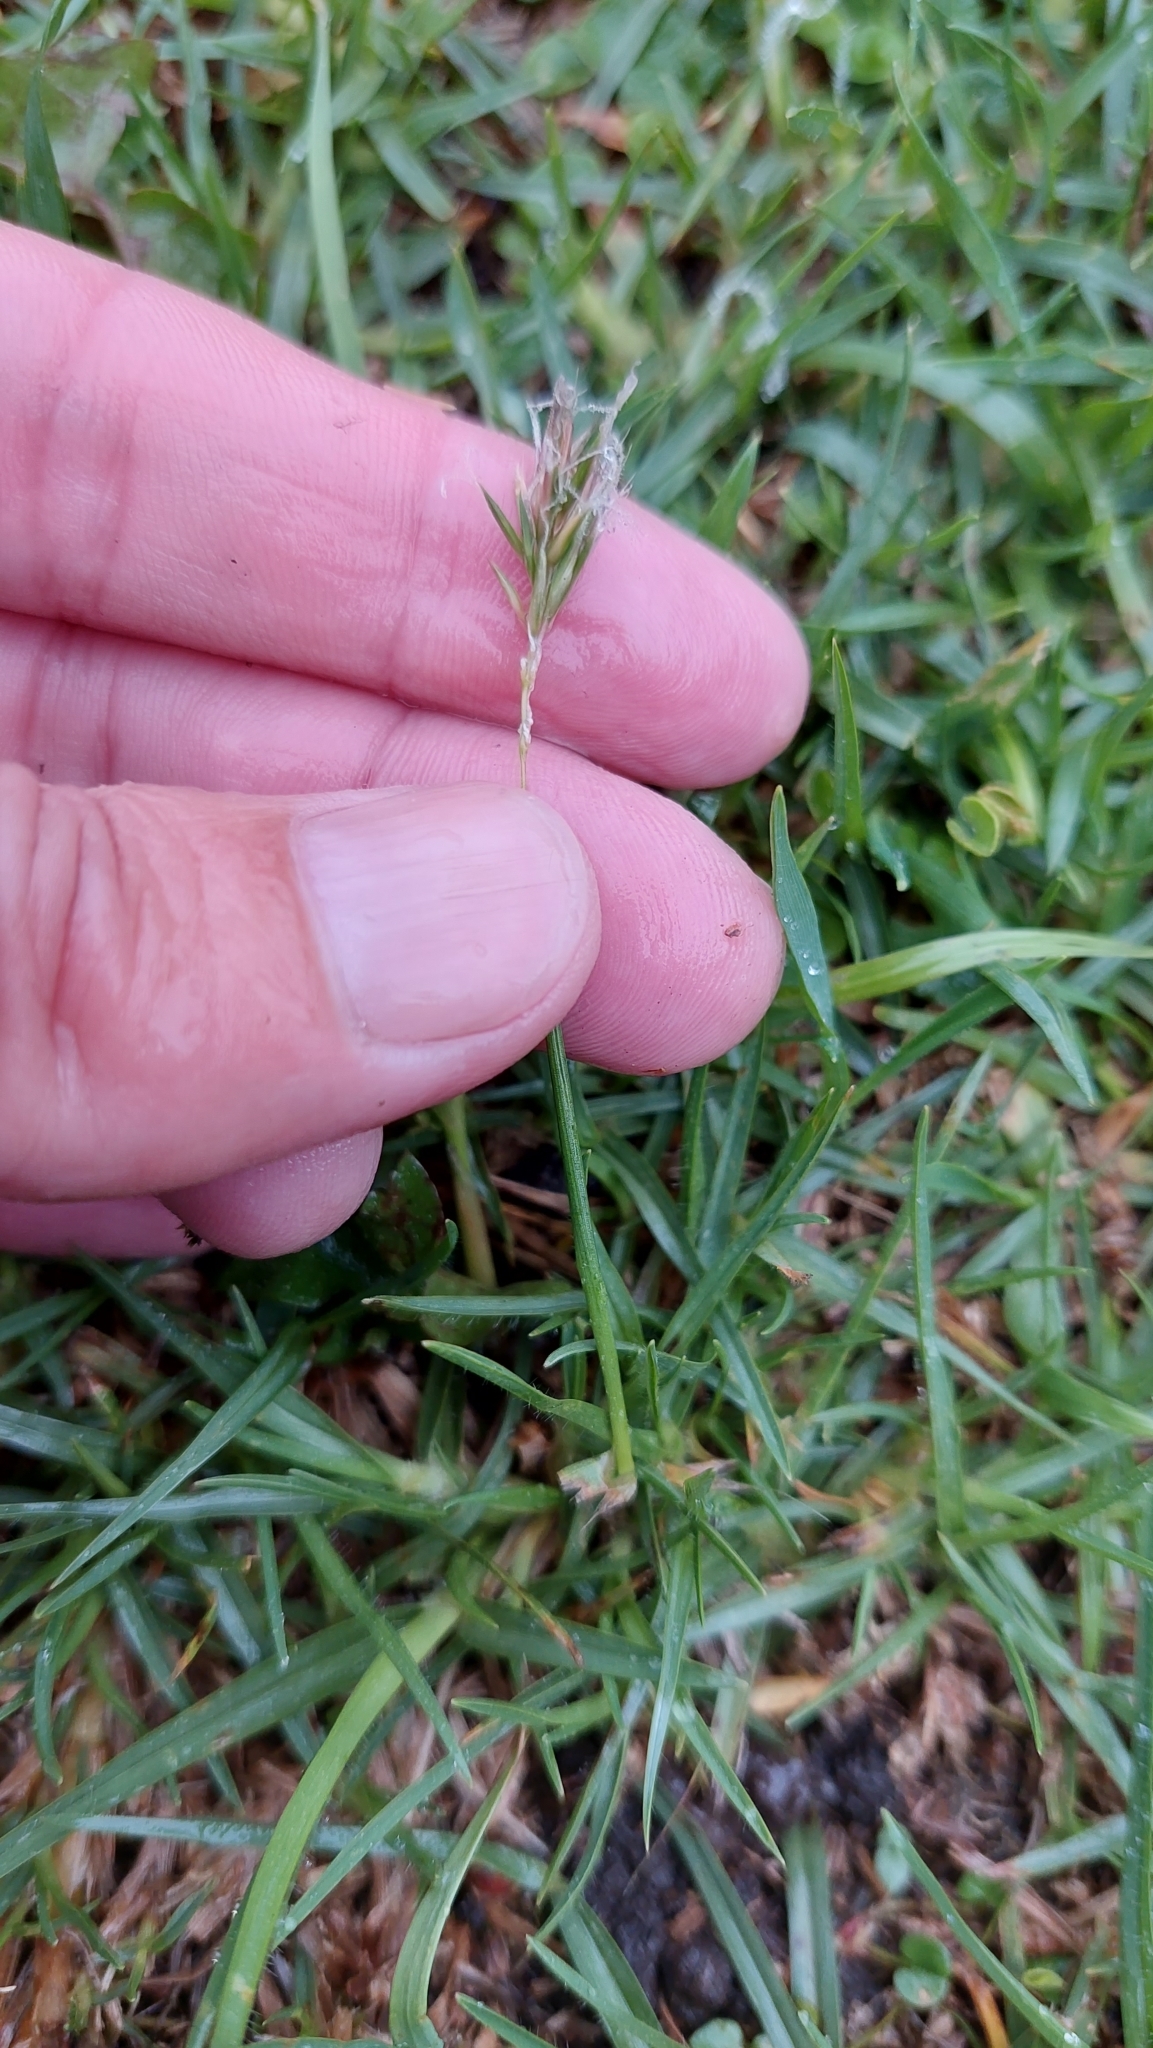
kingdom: Plantae
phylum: Tracheophyta
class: Liliopsida
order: Poales
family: Poaceae
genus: Anthoxanthum
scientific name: Anthoxanthum odoratum
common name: Sweet vernalgrass
